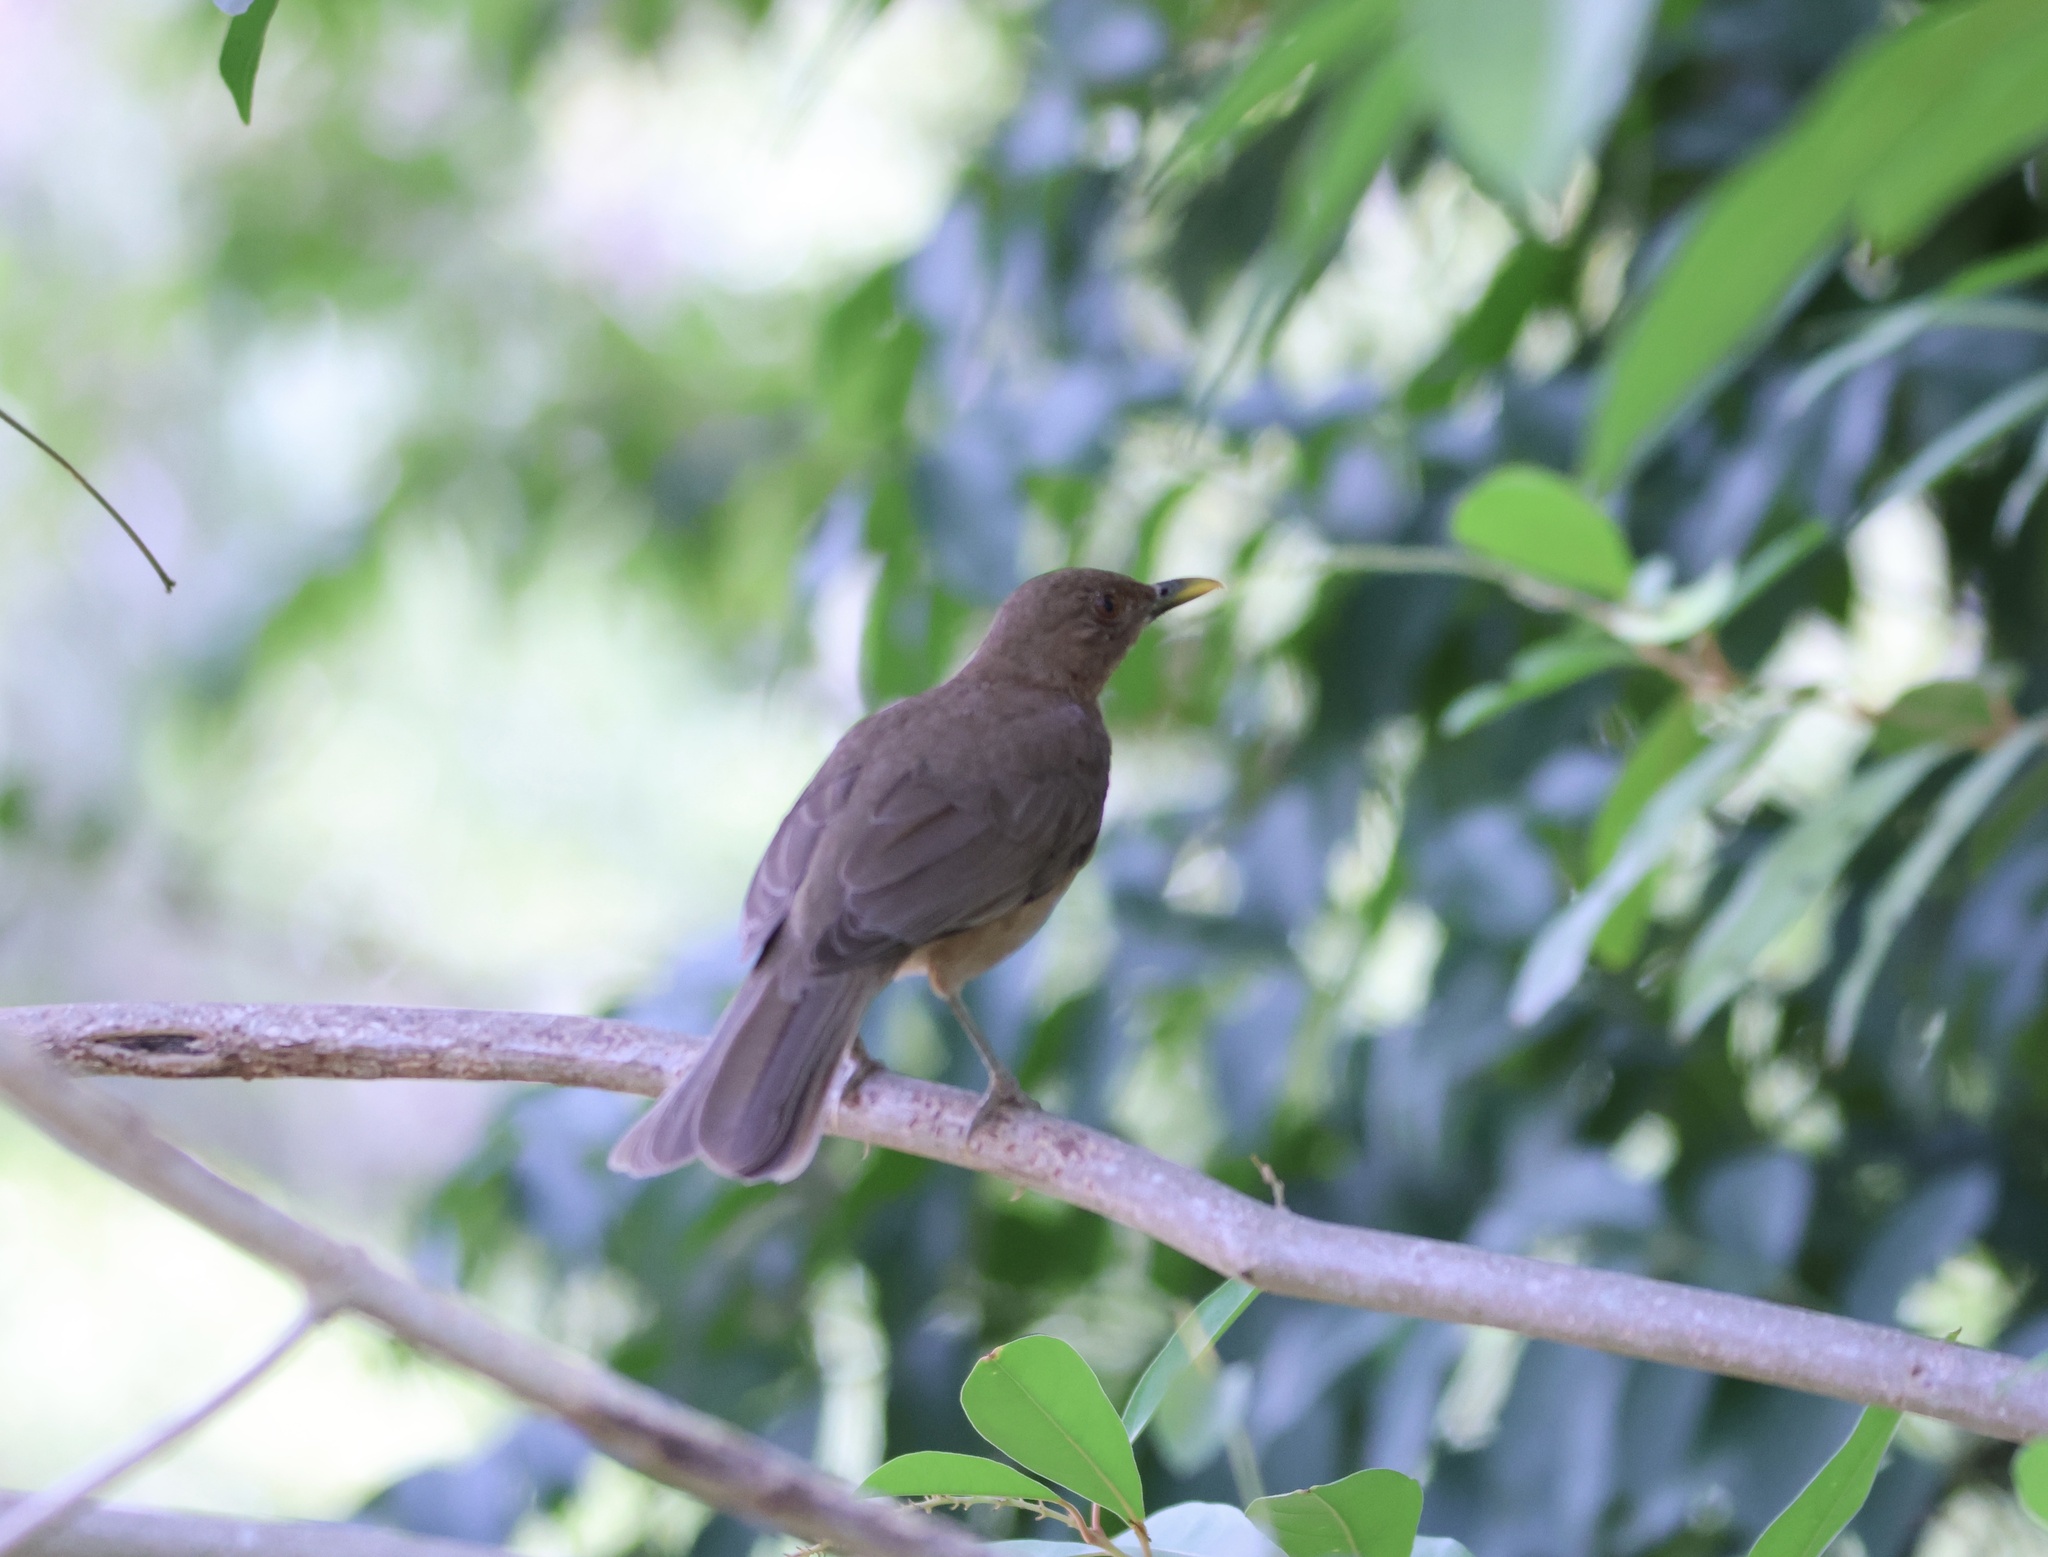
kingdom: Animalia
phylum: Chordata
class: Aves
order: Passeriformes
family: Turdidae
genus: Turdus
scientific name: Turdus grayi
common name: Clay-colored thrush
